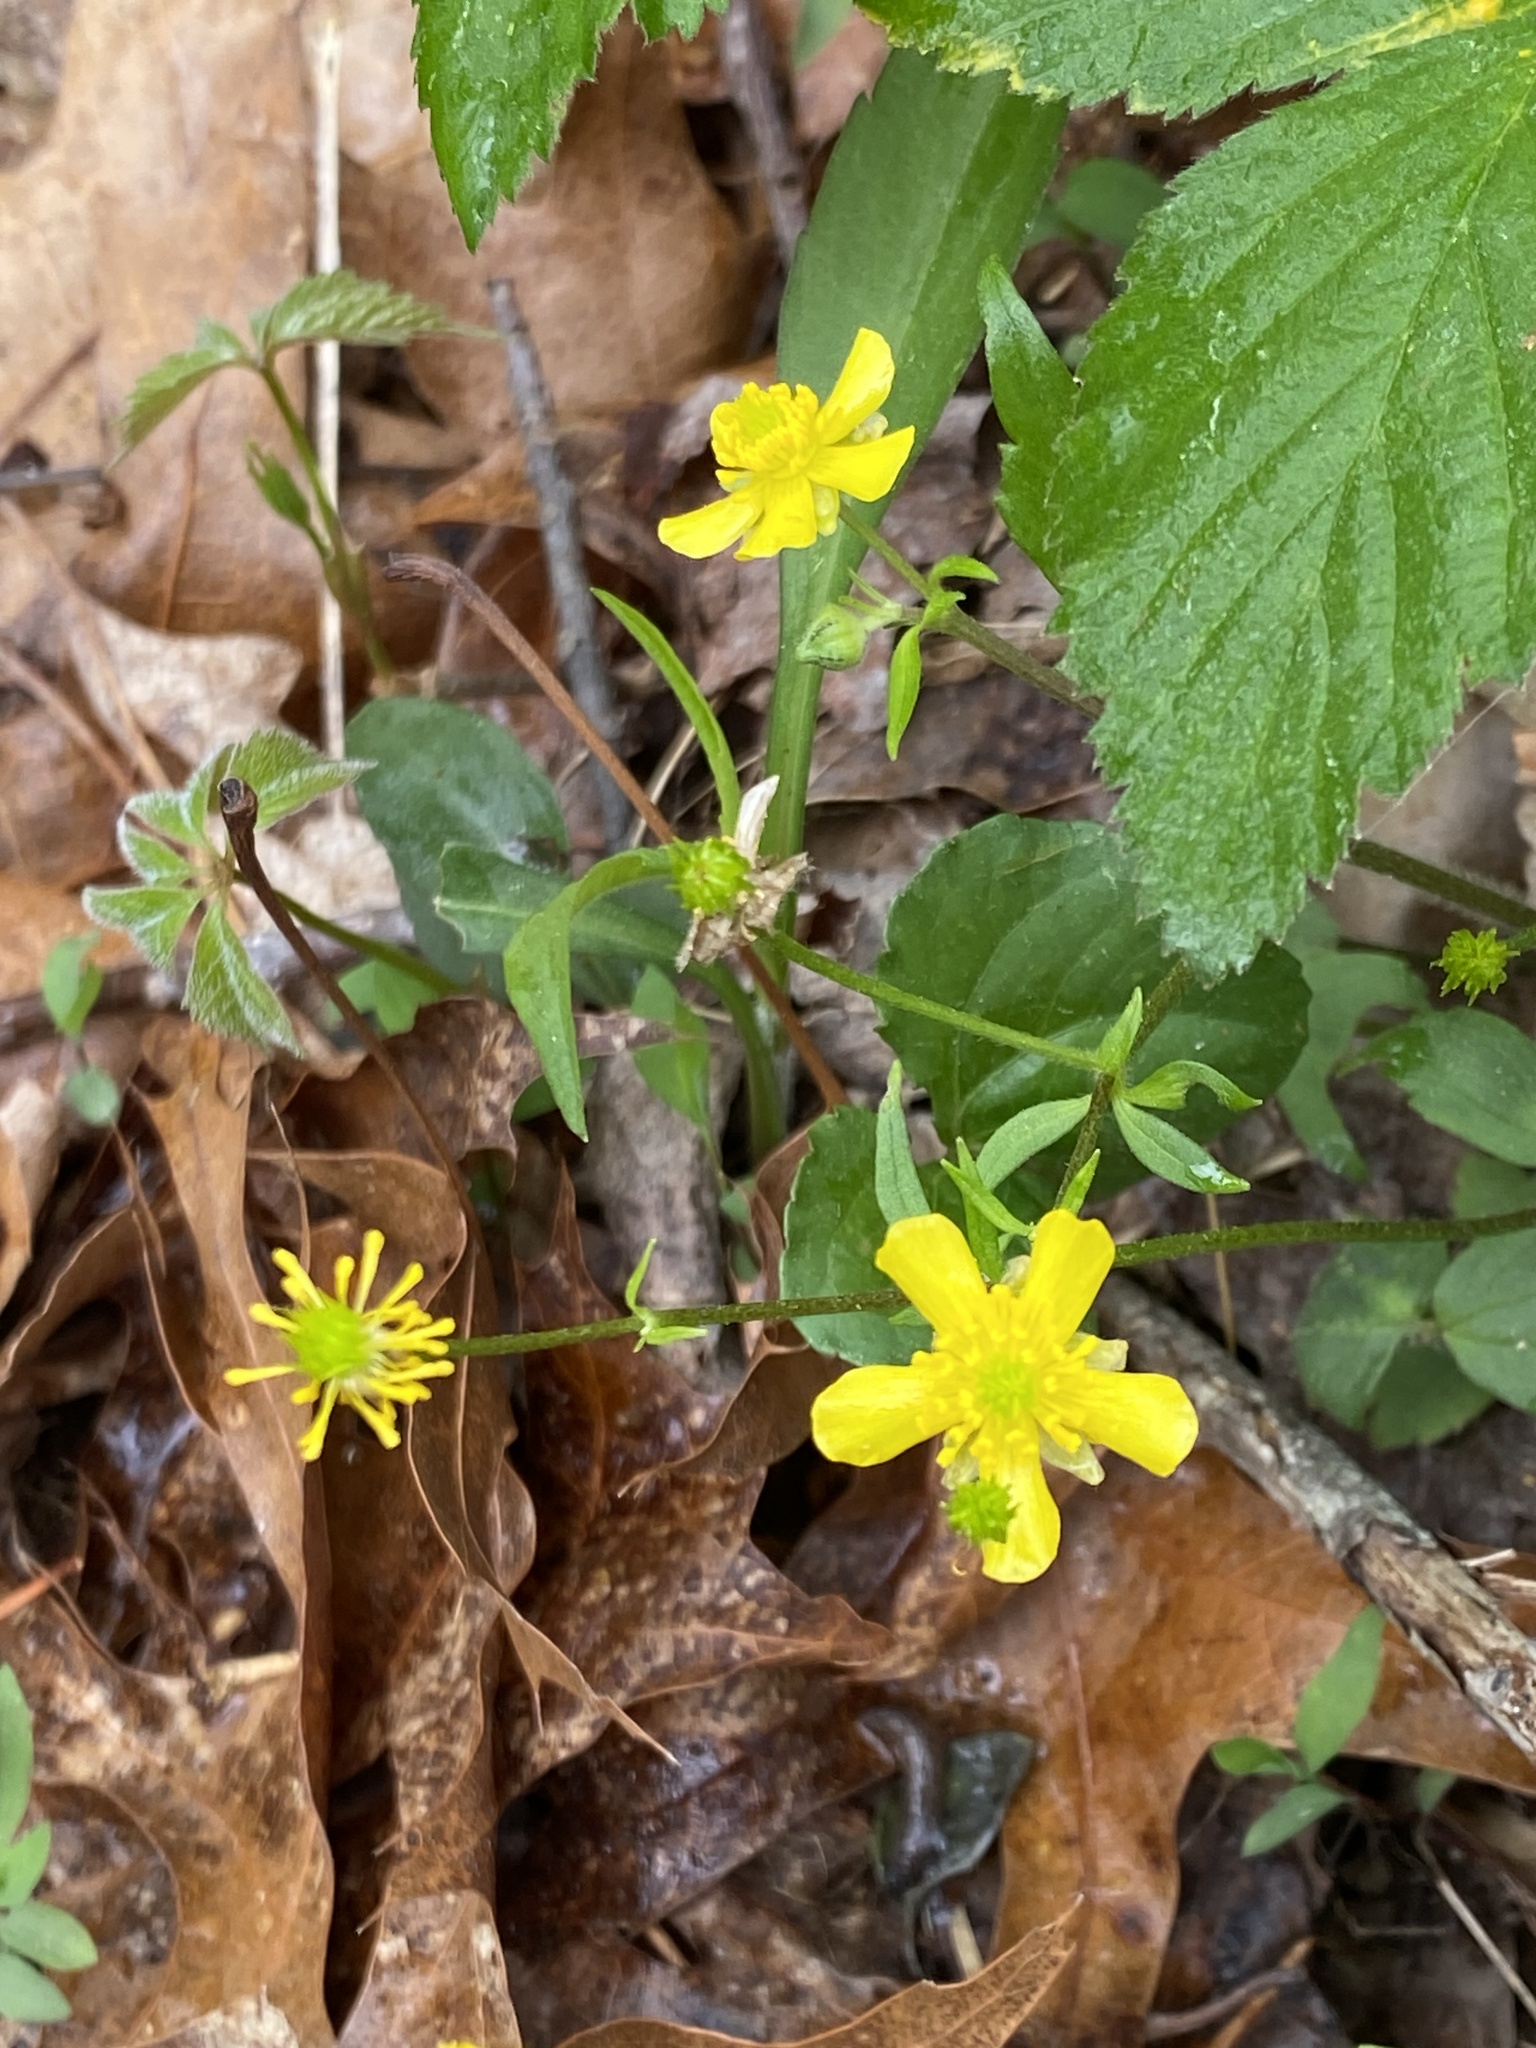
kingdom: Plantae
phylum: Tracheophyta
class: Magnoliopsida
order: Ranunculales
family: Ranunculaceae
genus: Ranunculus
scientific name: Ranunculus hispidus
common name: Bristly buttercup
